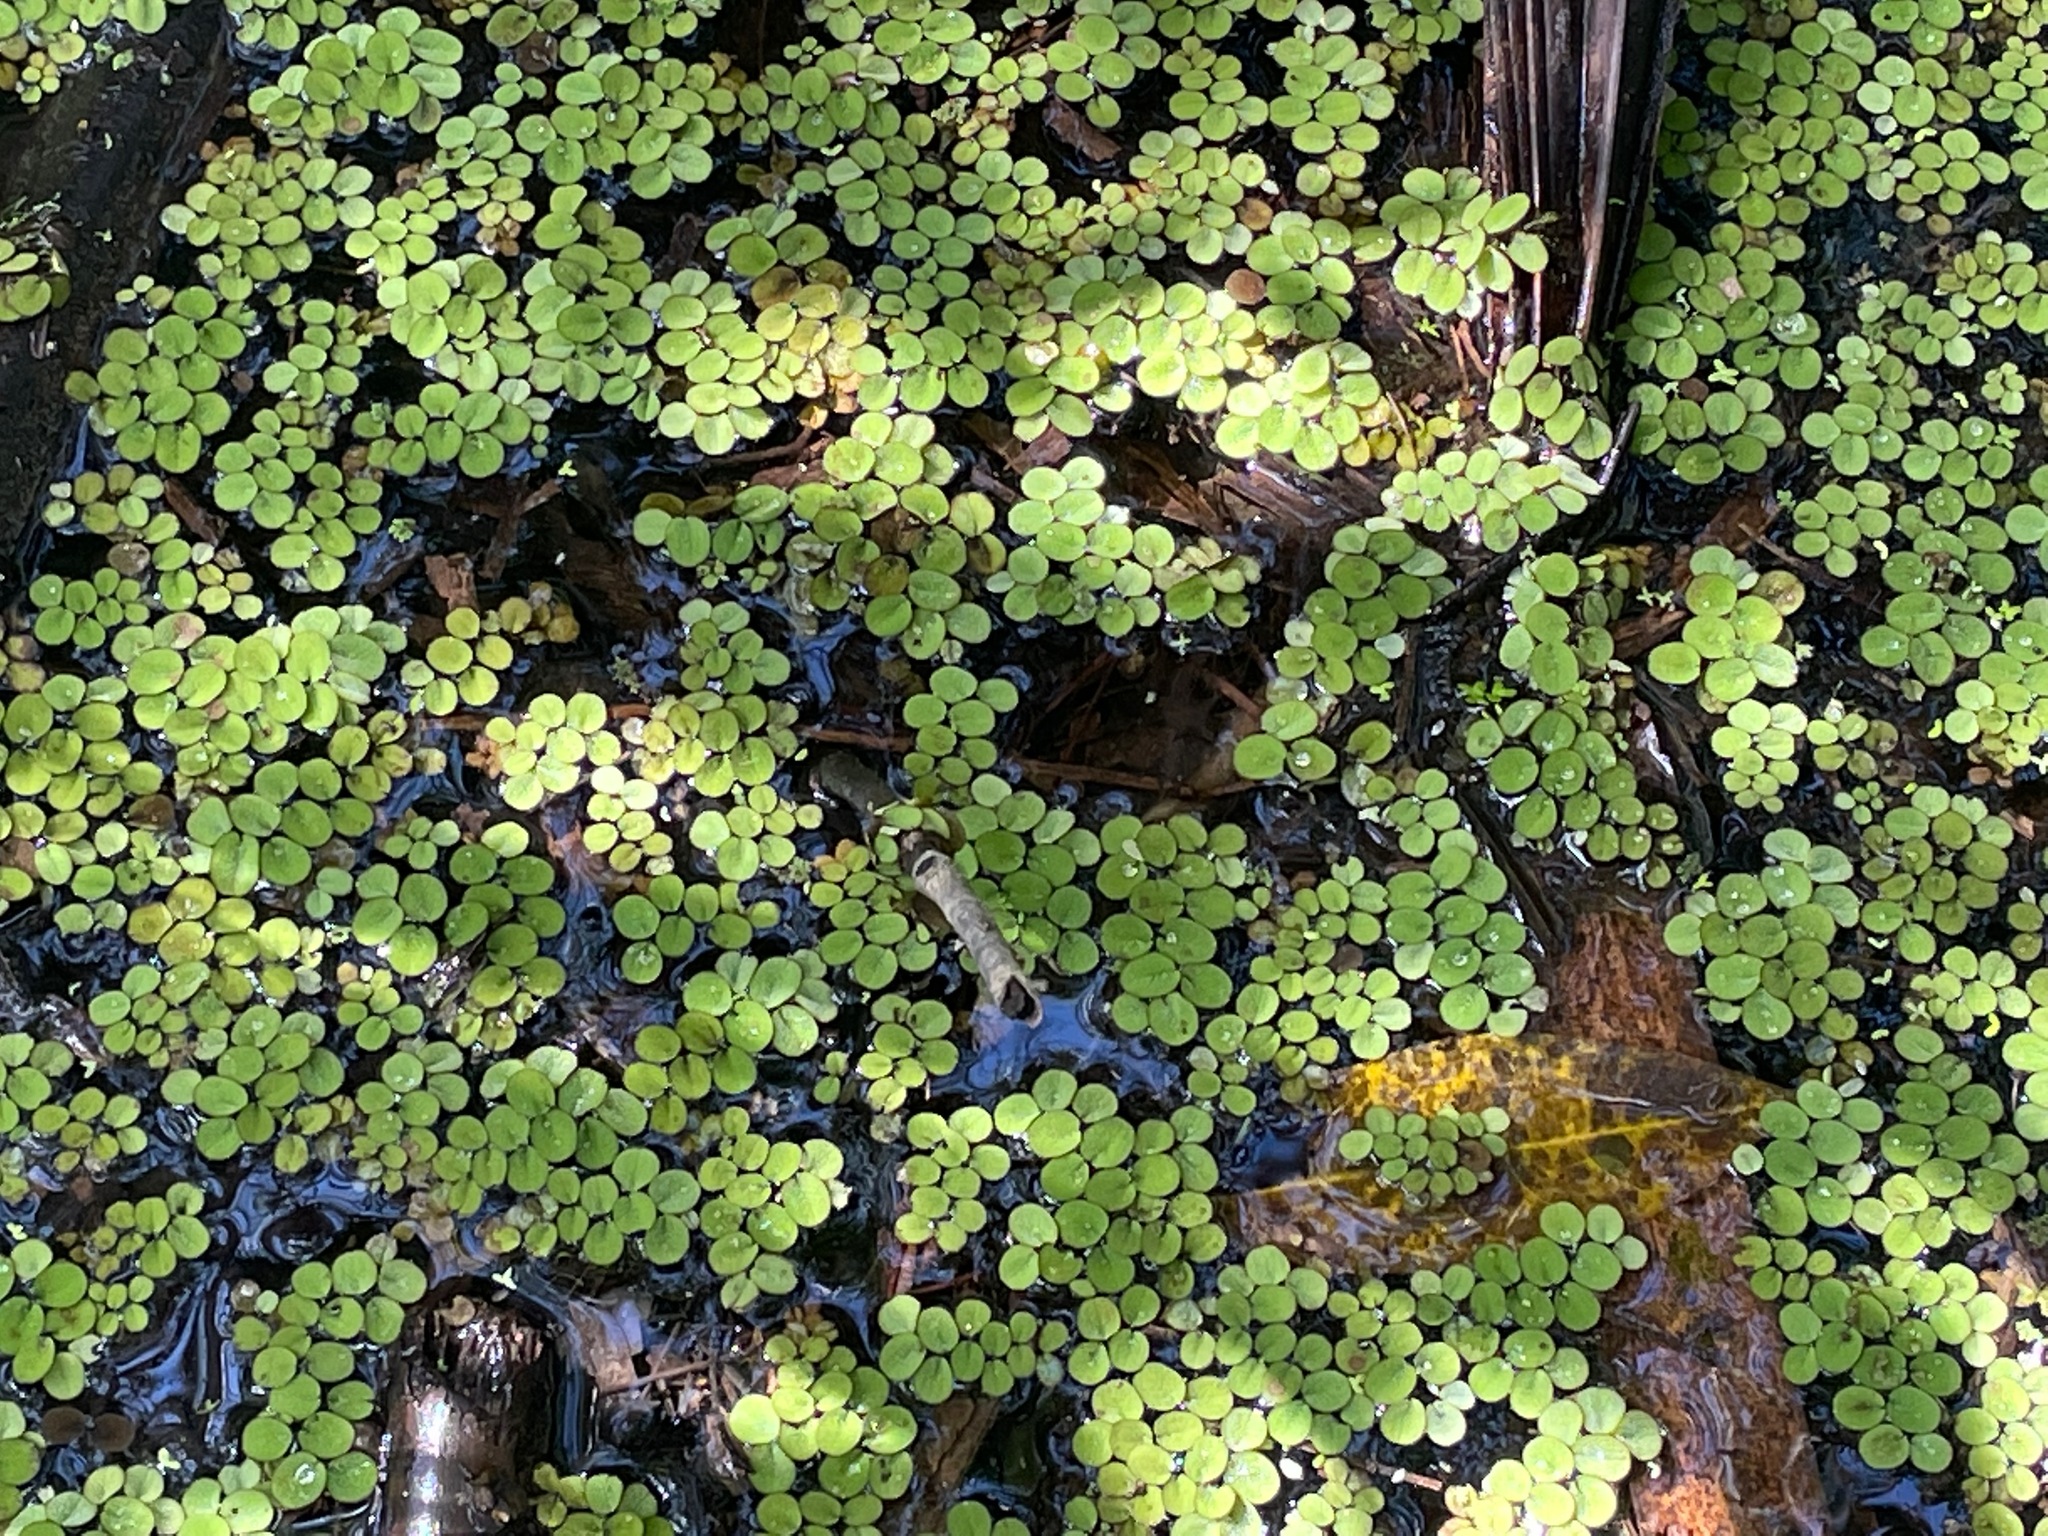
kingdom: Plantae
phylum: Tracheophyta
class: Polypodiopsida
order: Salviniales
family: Salviniaceae
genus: Salvinia
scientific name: Salvinia minima
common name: Water spangles
